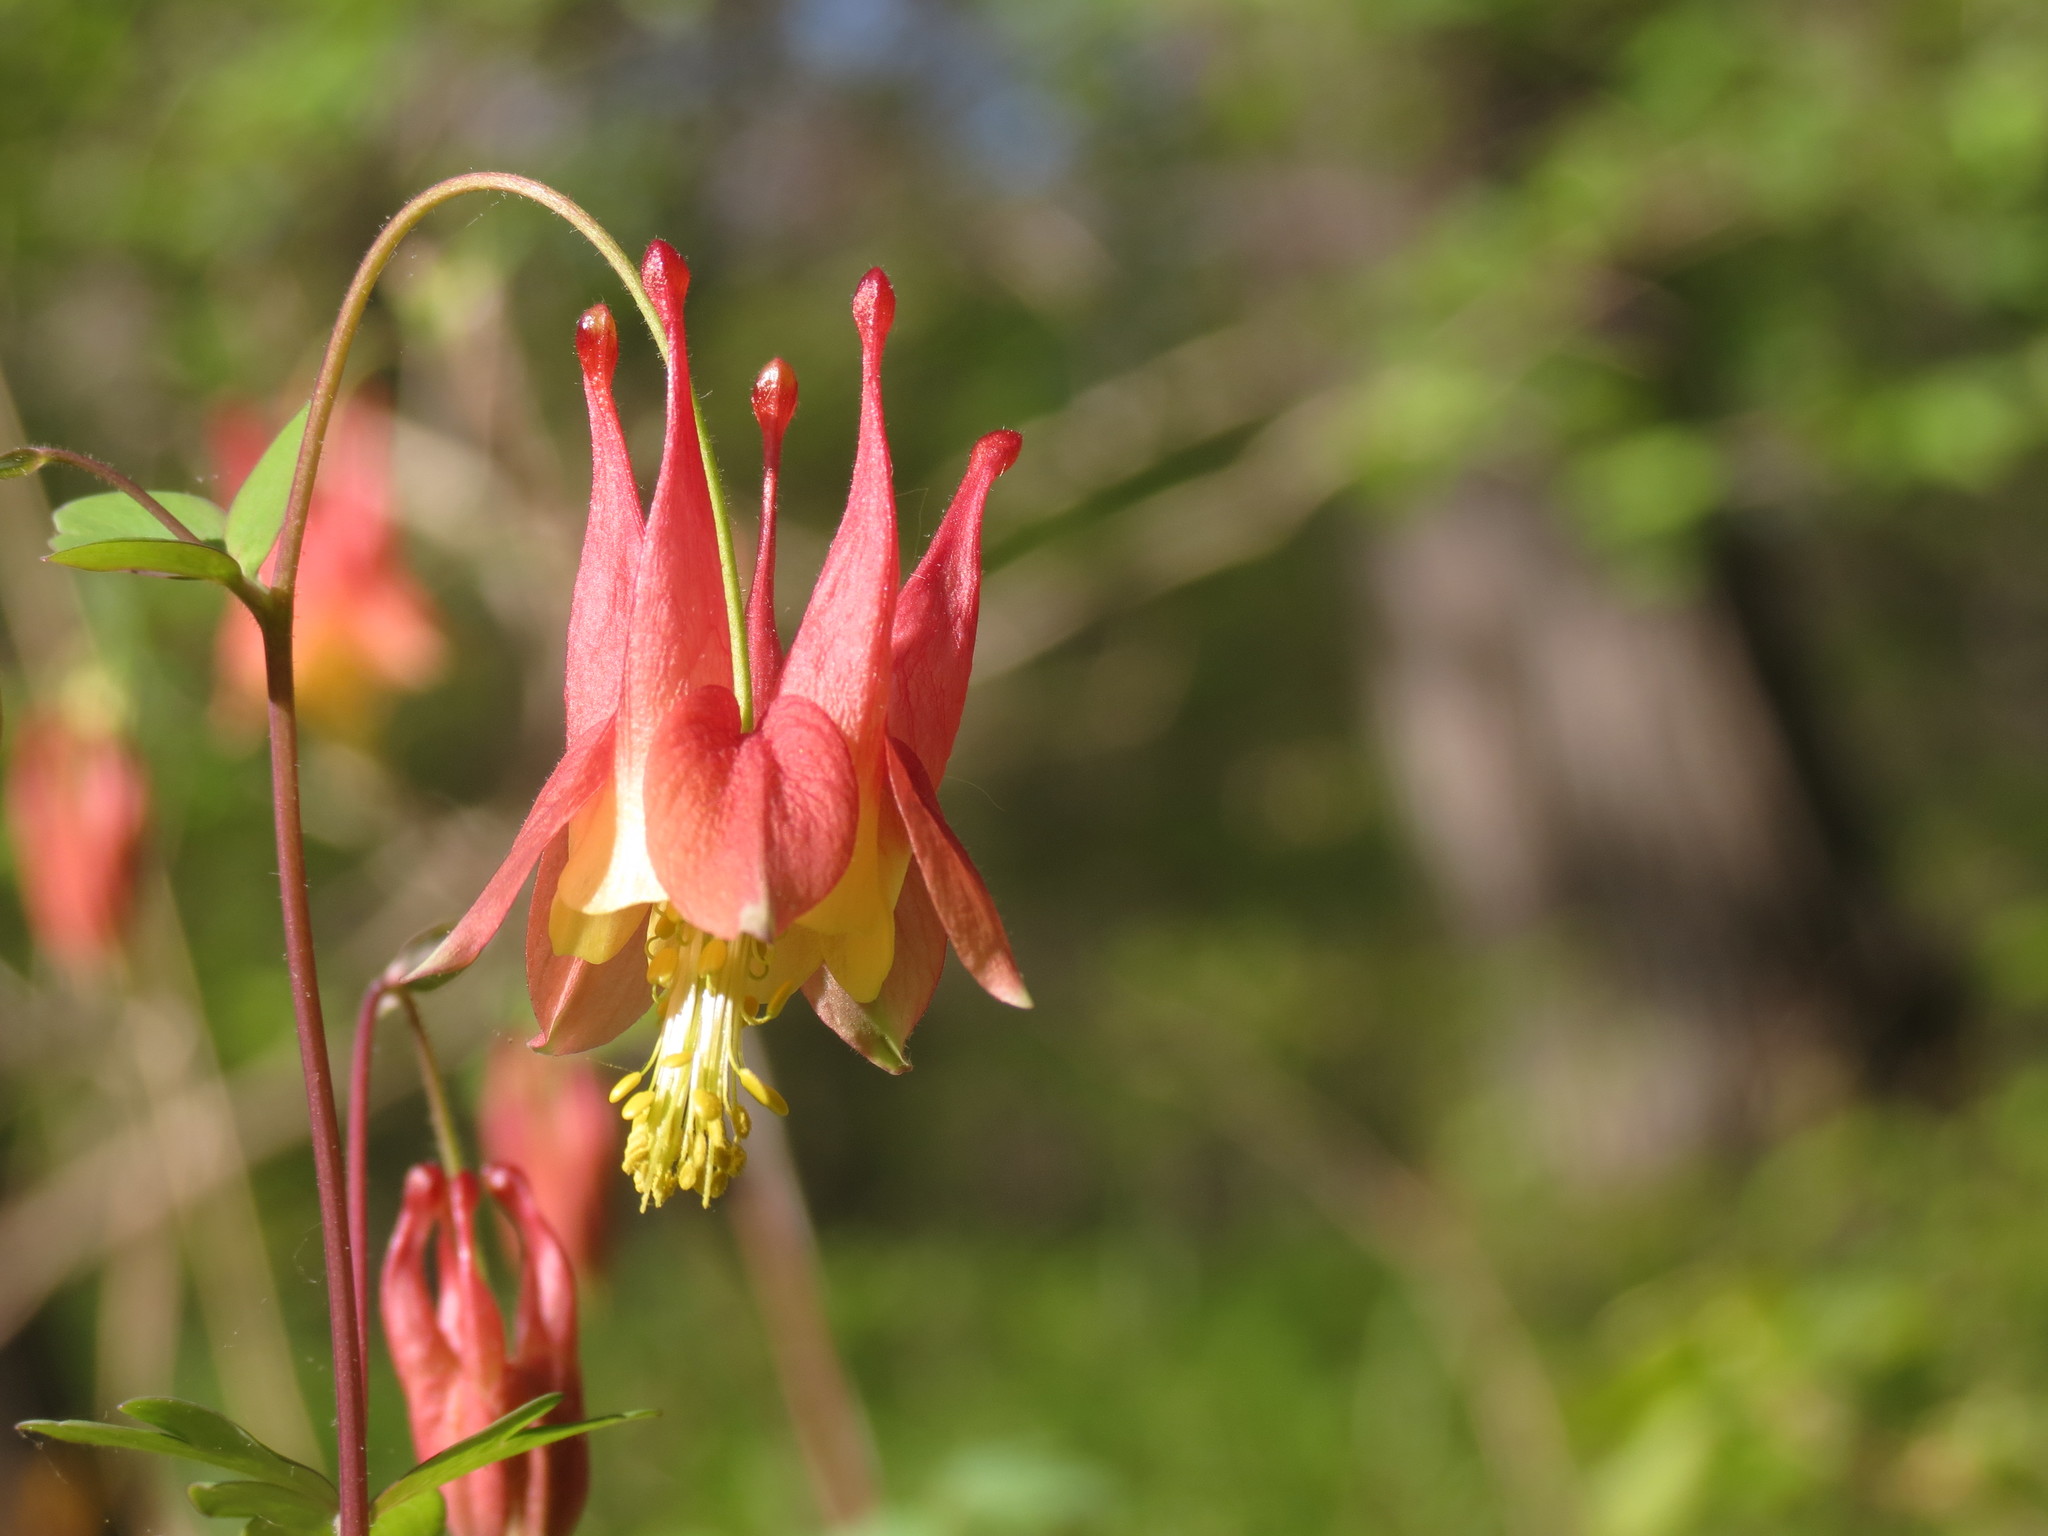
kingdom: Plantae
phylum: Tracheophyta
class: Magnoliopsida
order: Ranunculales
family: Ranunculaceae
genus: Aquilegia
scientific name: Aquilegia canadensis
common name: American columbine
